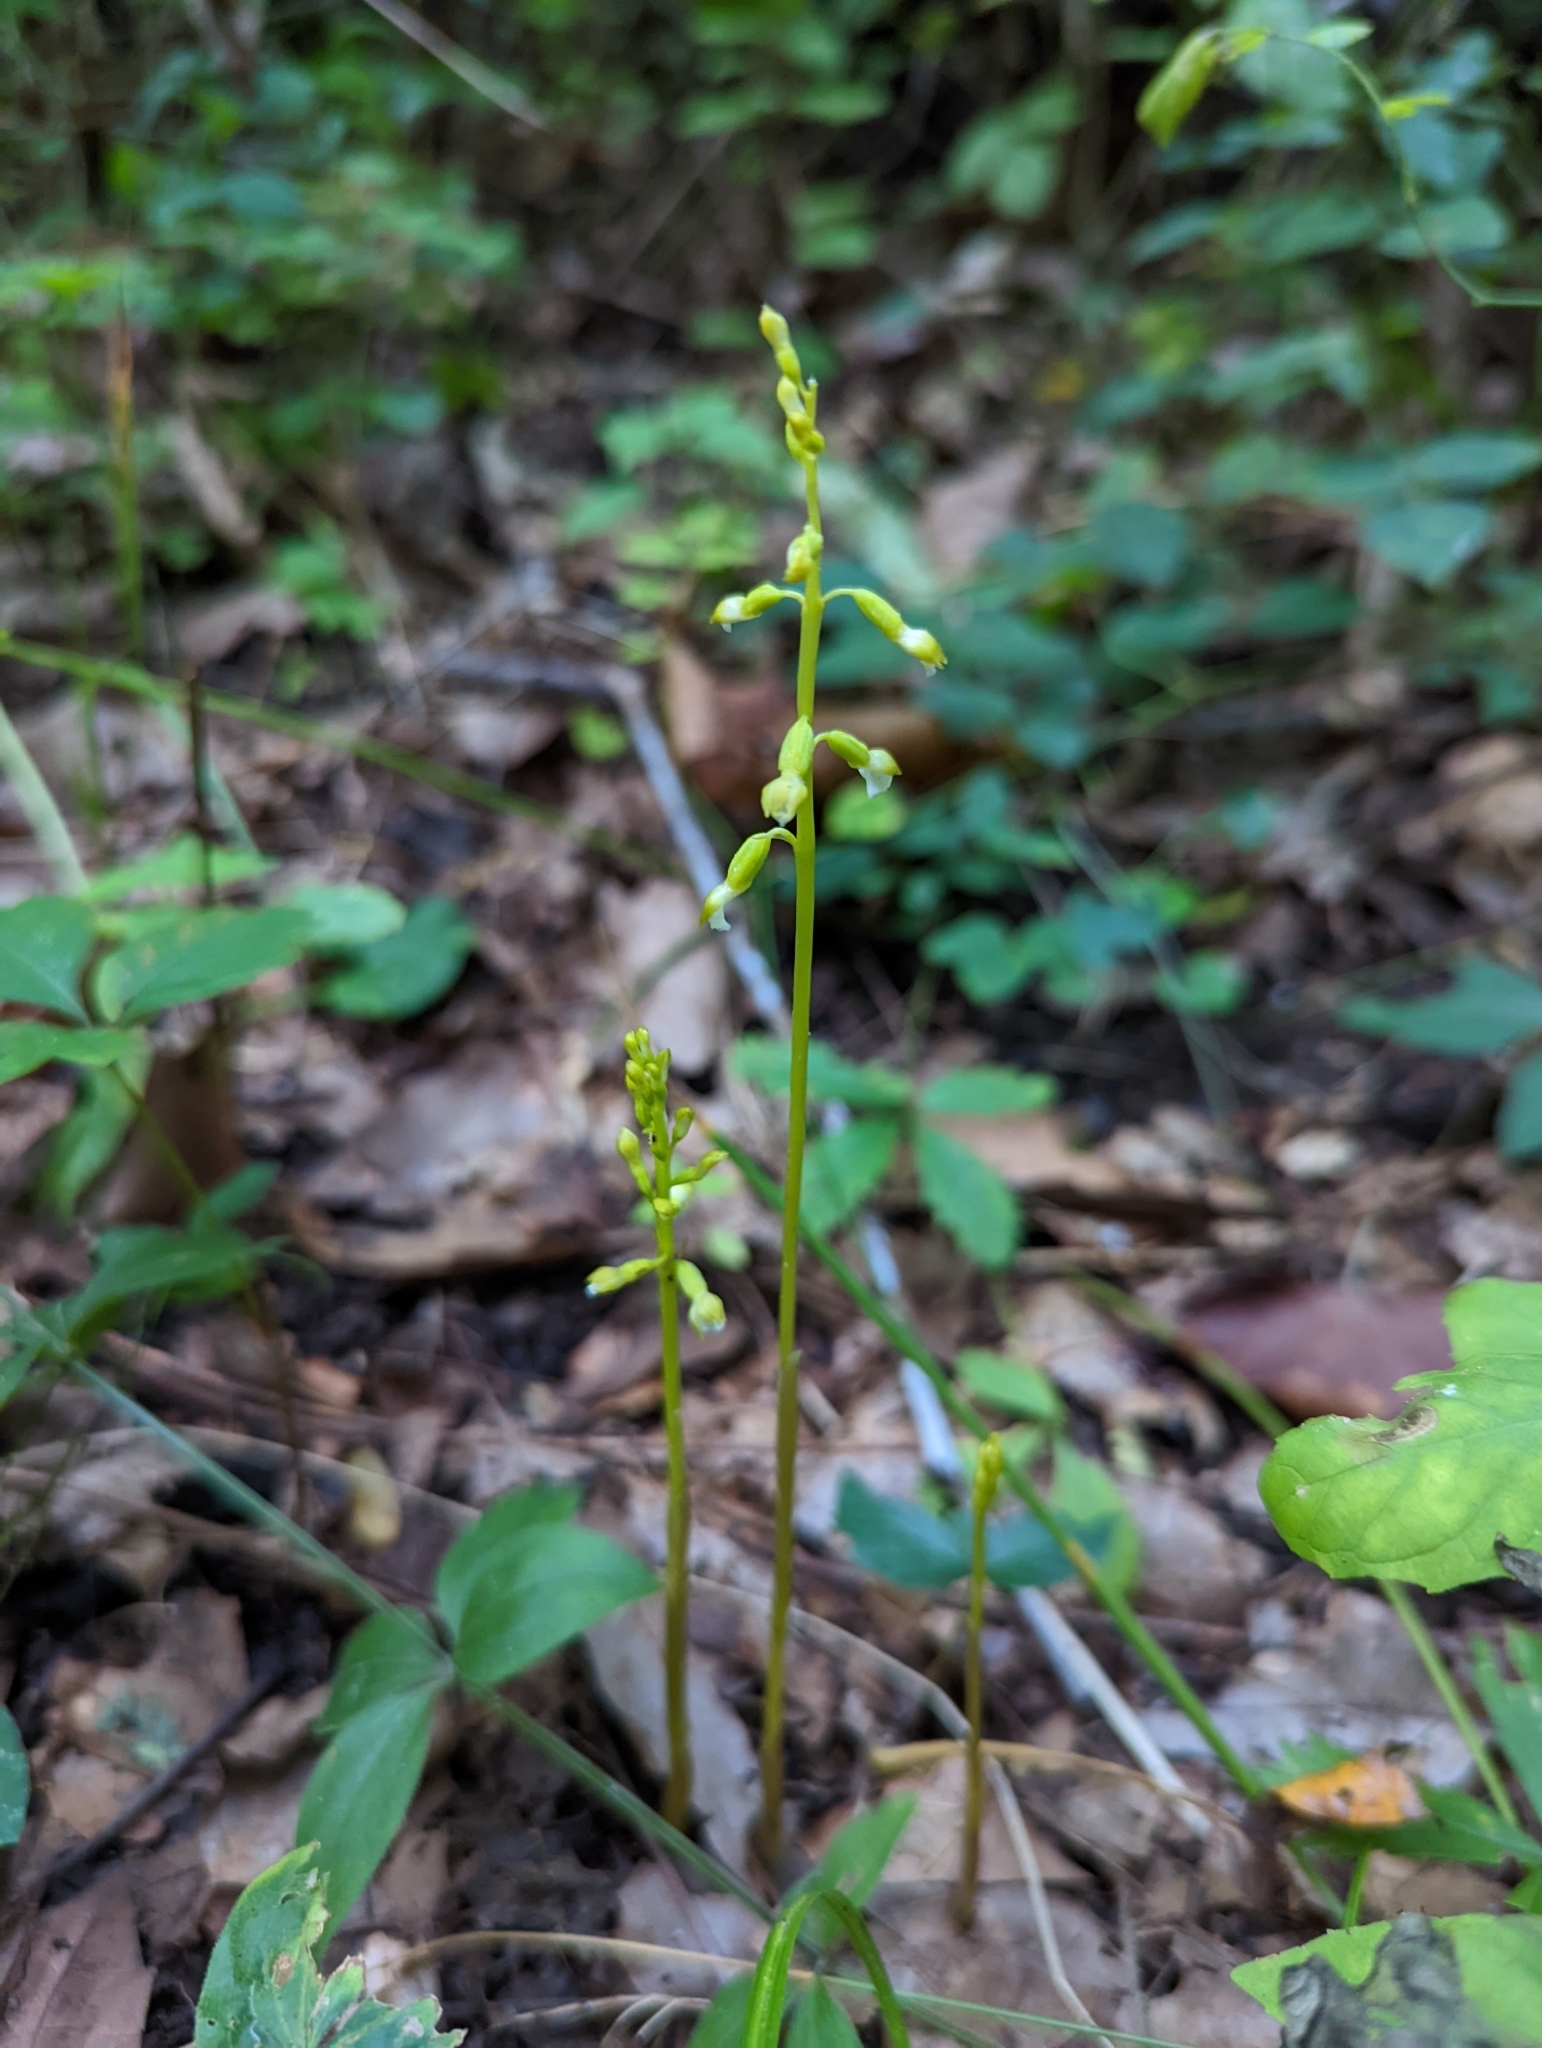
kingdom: Plantae
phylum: Tracheophyta
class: Liliopsida
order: Asparagales
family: Orchidaceae
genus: Corallorhiza
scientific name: Corallorhiza odontorhiza
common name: Autumn coralroot
